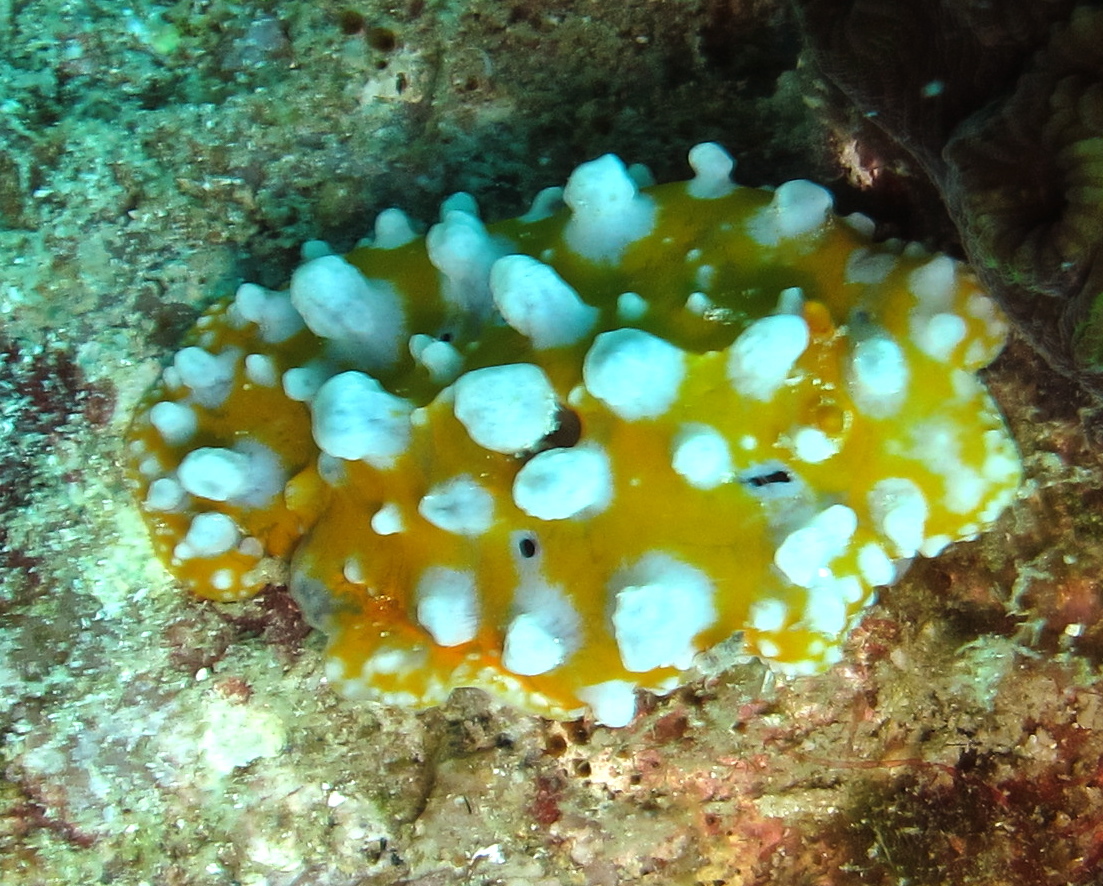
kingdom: Animalia
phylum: Mollusca
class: Gastropoda
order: Nudibranchia
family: Phyllidiidae
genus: Phyllidia
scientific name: Phyllidia ocellata
